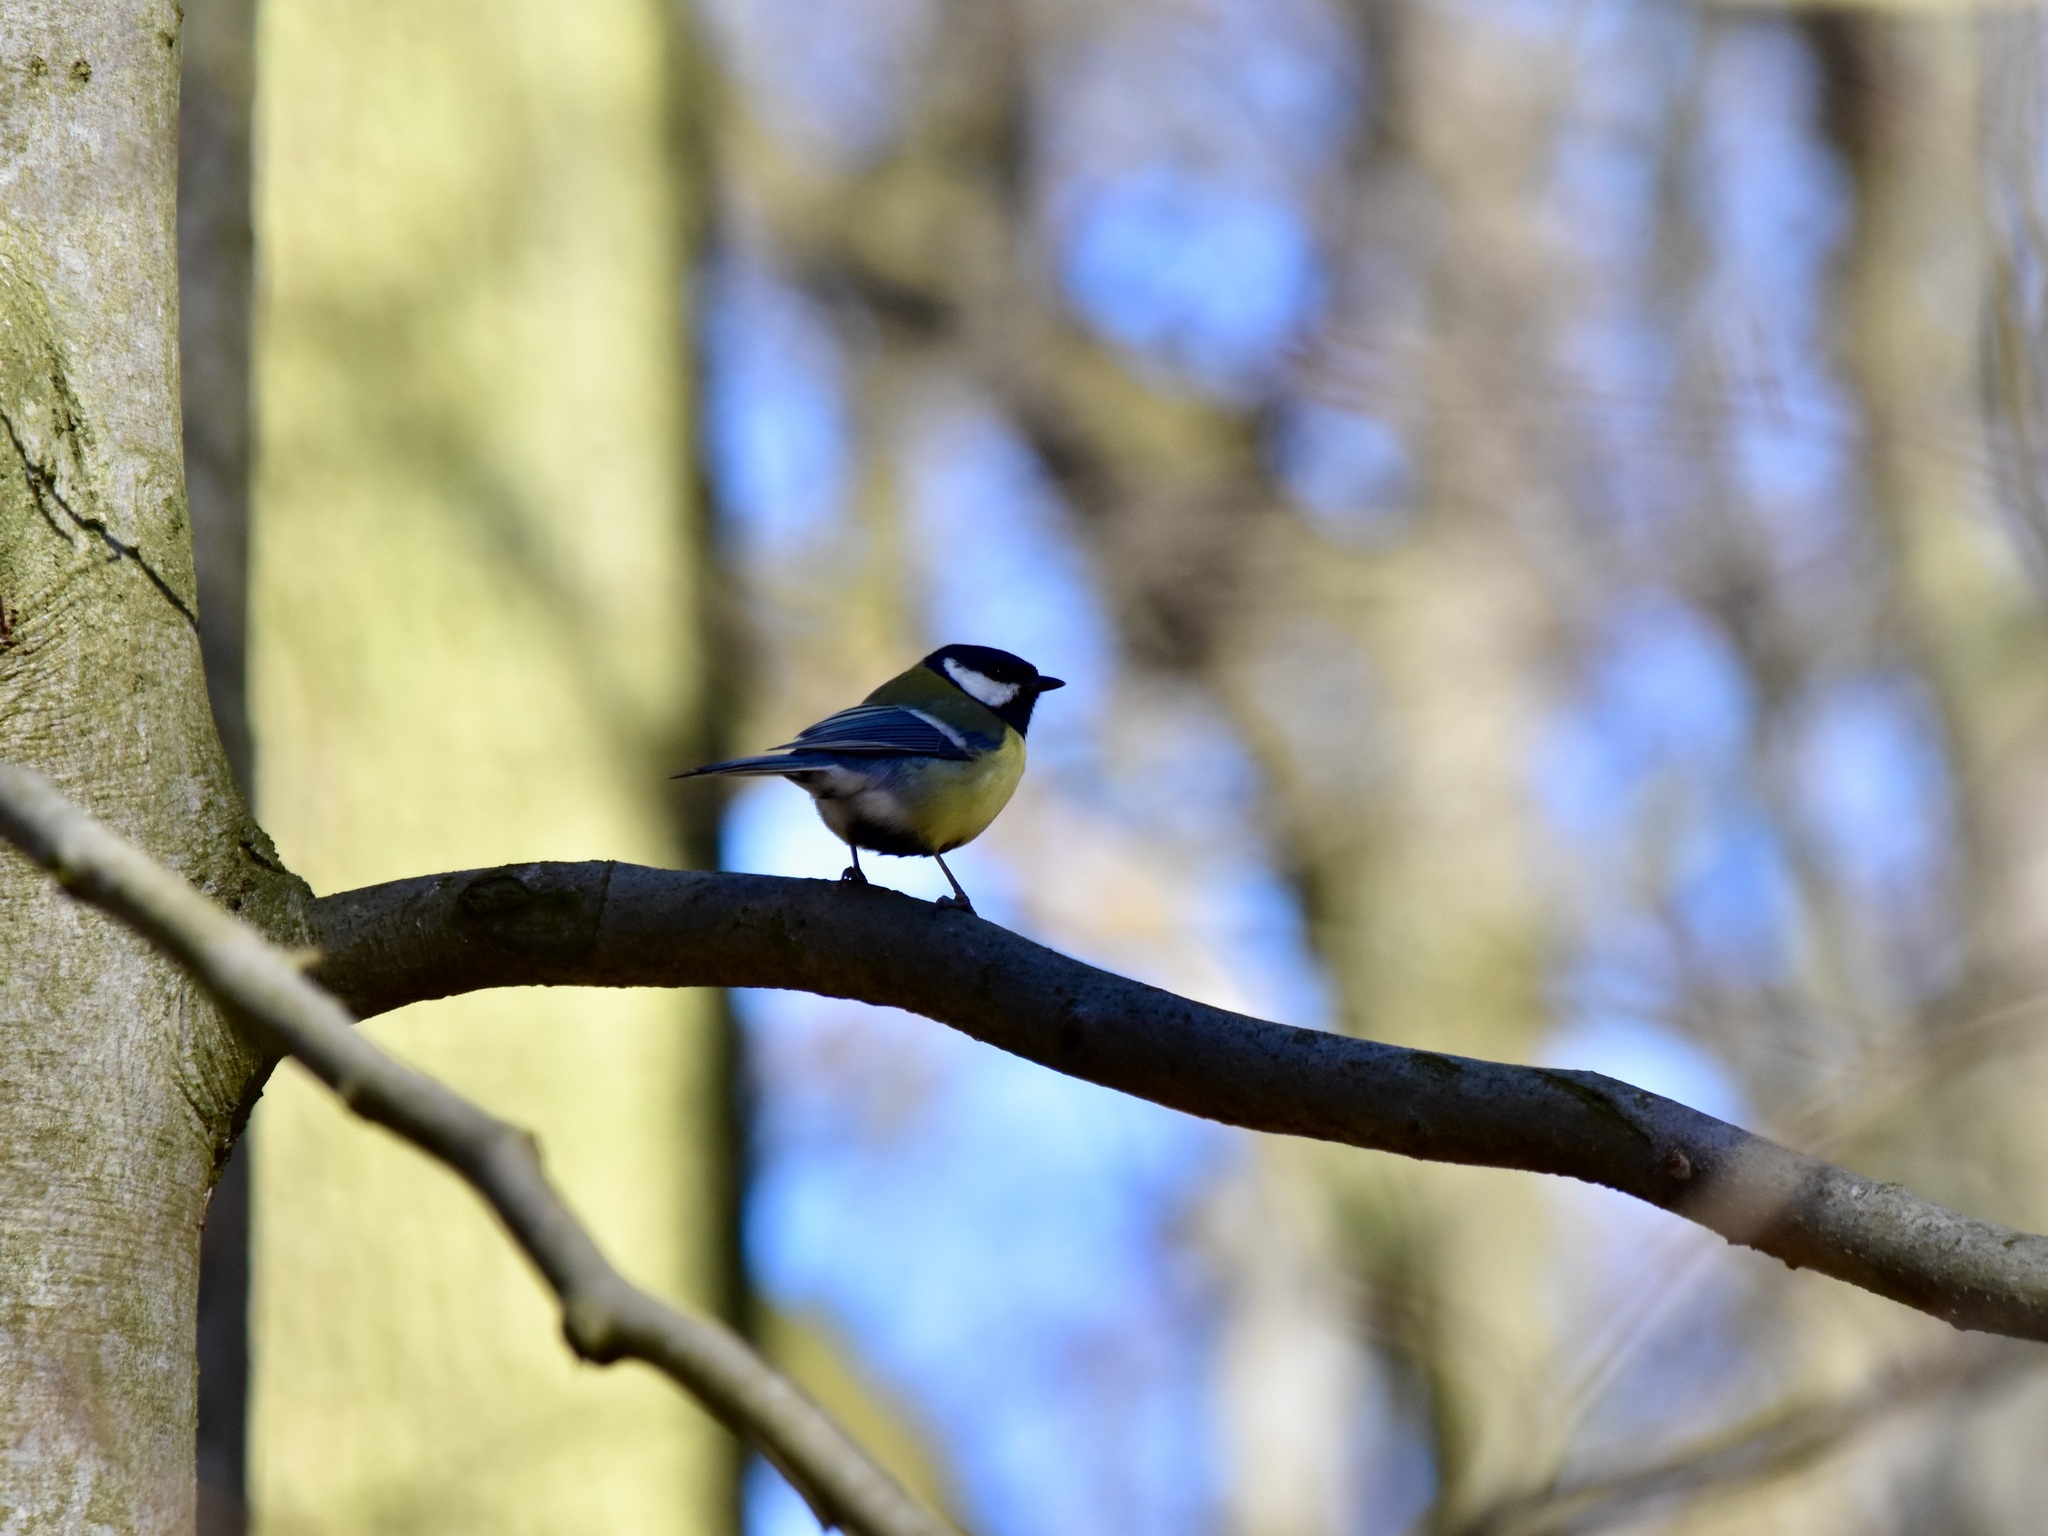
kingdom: Animalia
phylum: Chordata
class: Aves
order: Passeriformes
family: Paridae
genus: Parus
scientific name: Parus major
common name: Great tit
